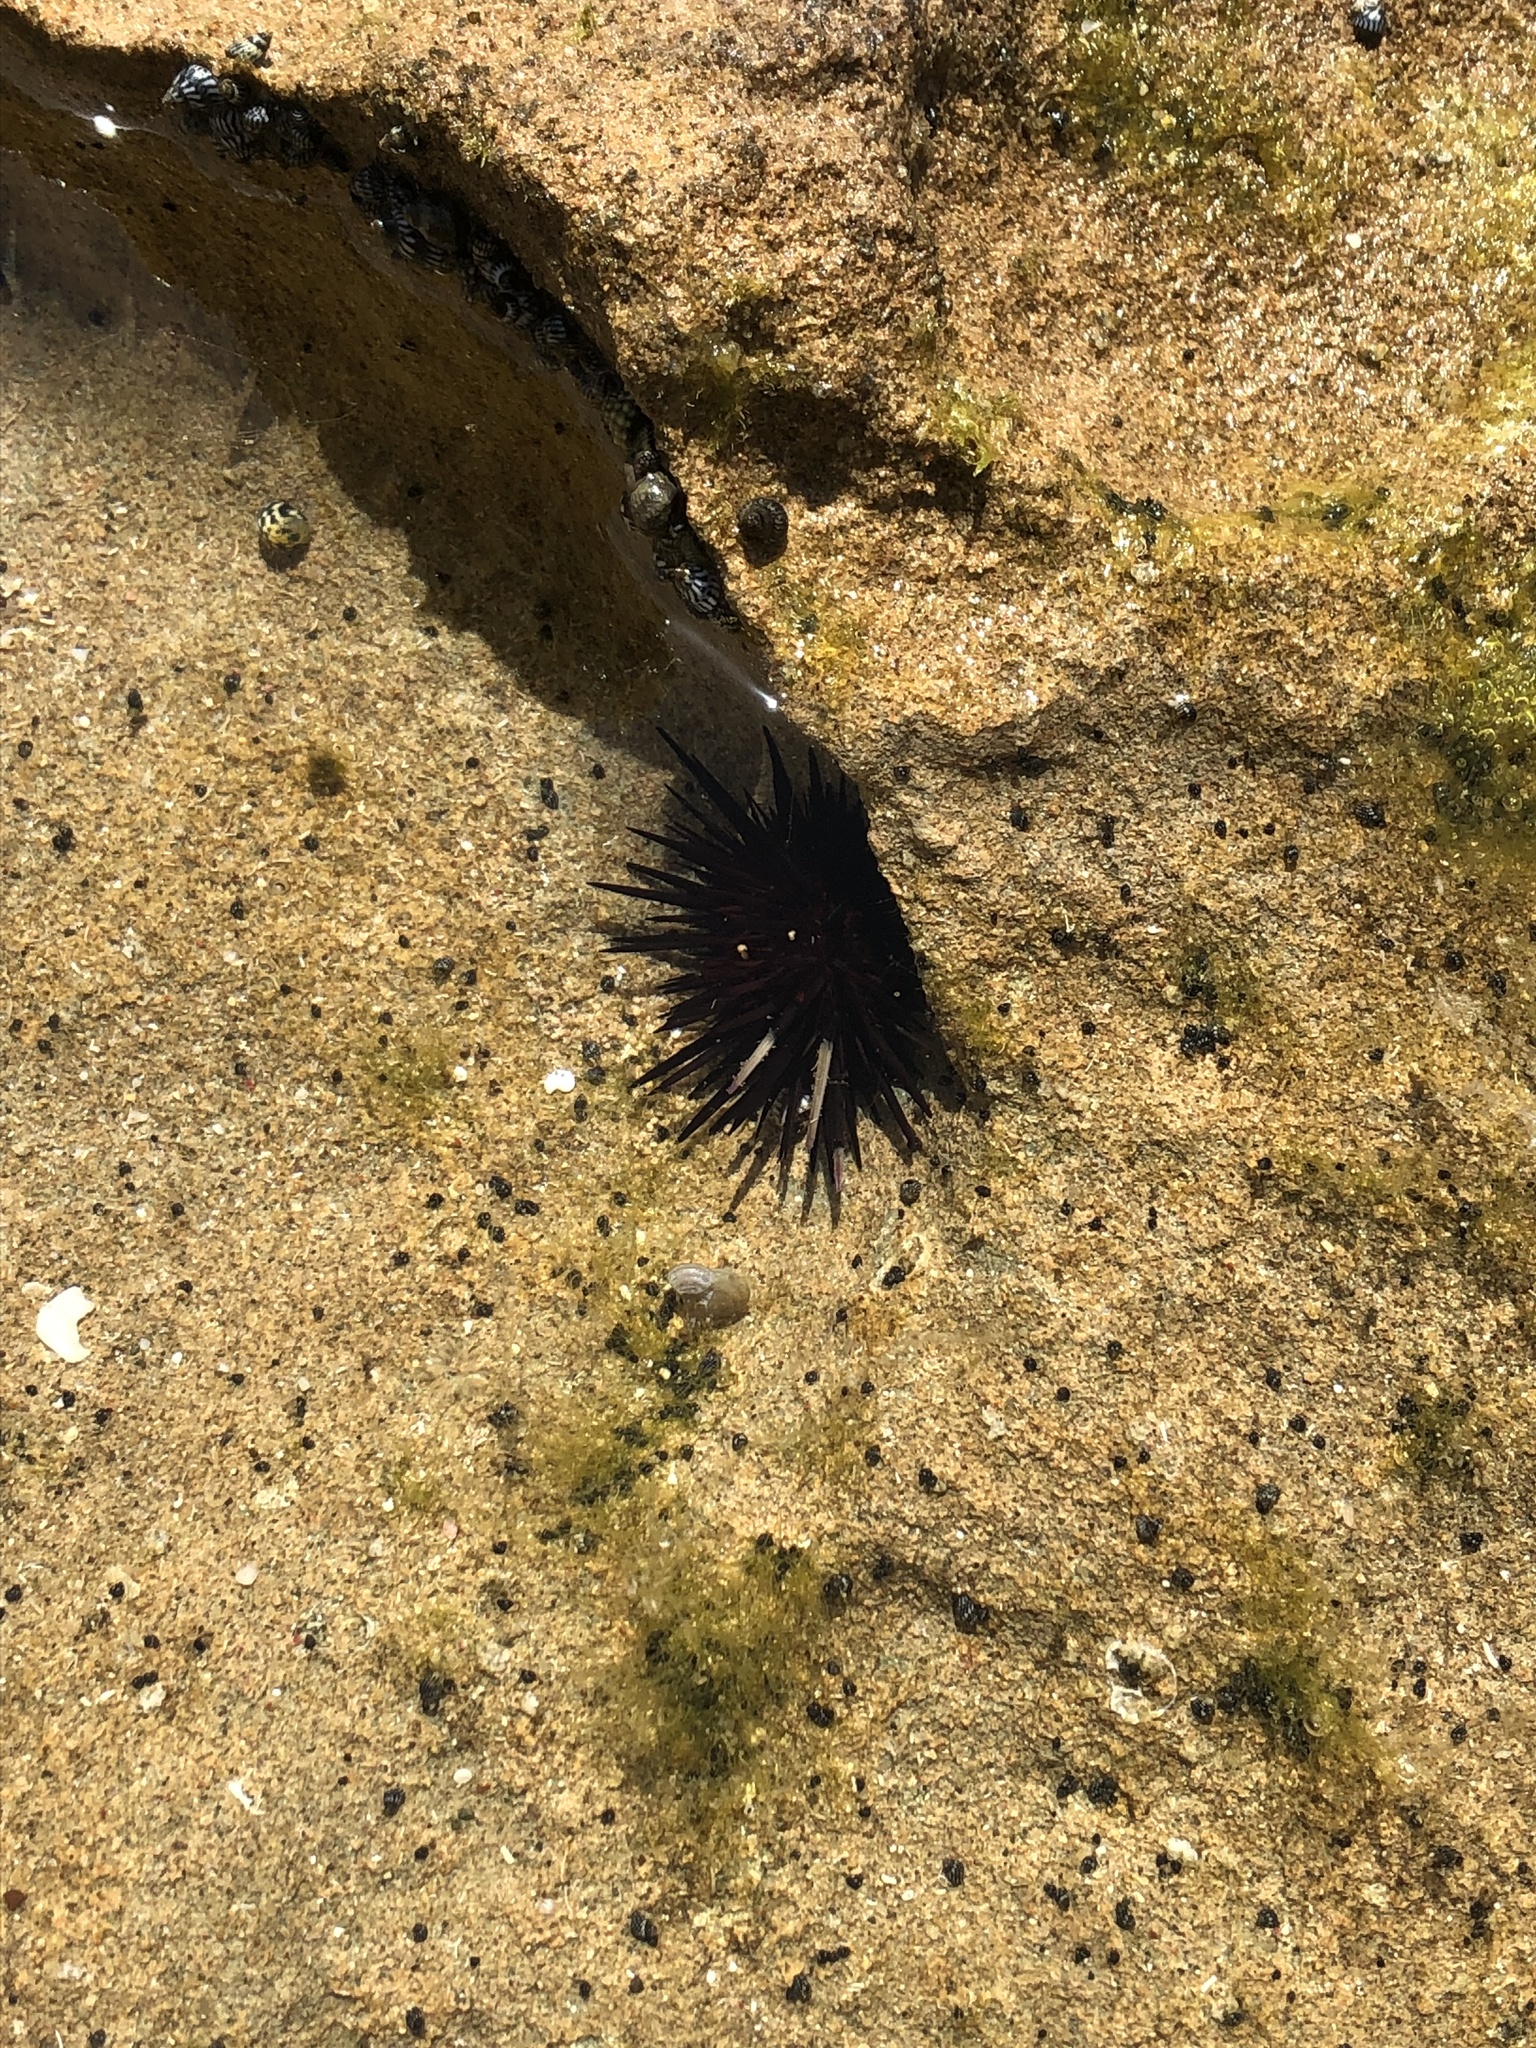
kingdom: Animalia
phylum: Echinodermata
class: Echinoidea
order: Camarodonta
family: Echinometridae
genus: Echinometra
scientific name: Echinometra lucunter
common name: Rock urchin
